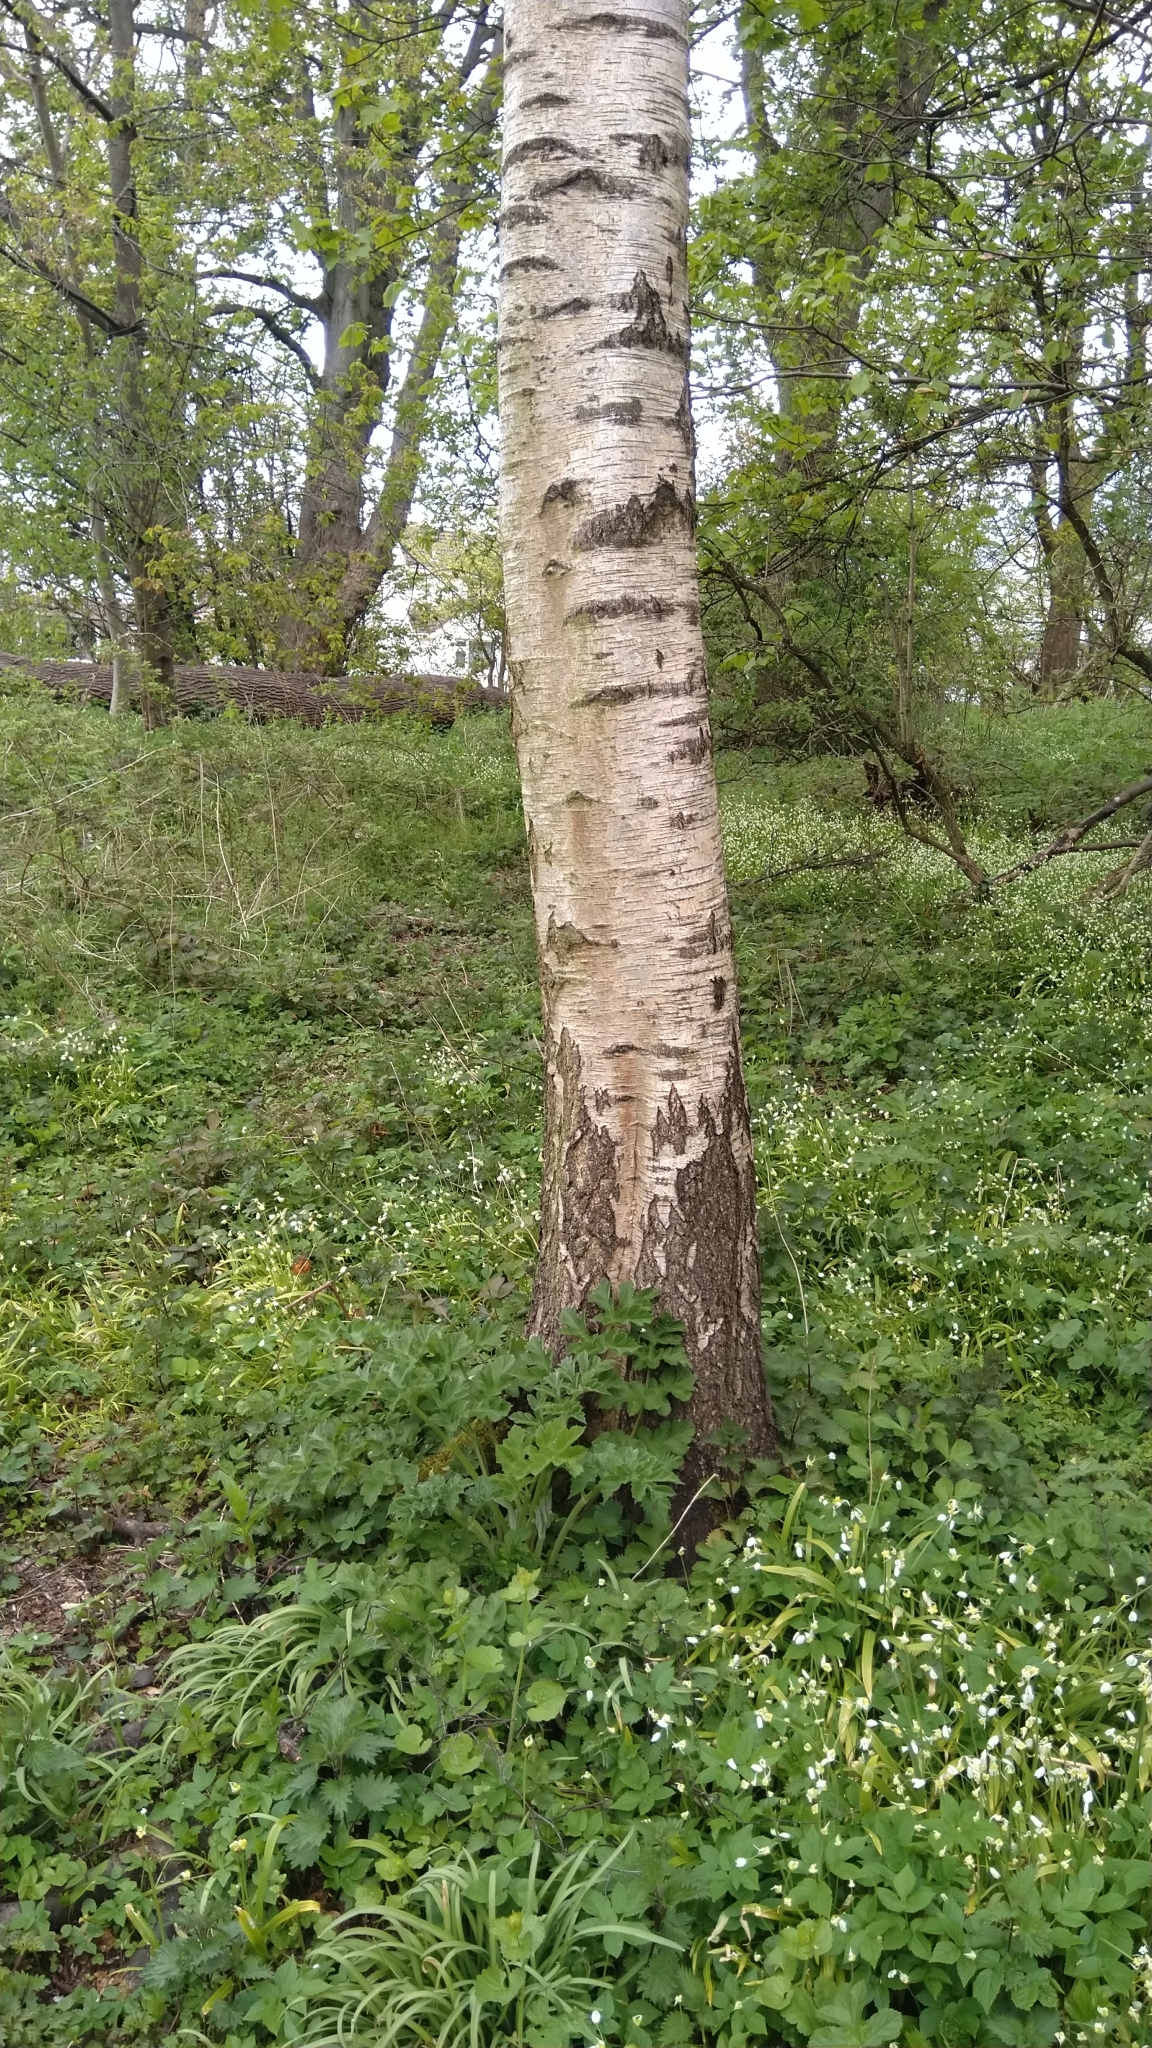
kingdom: Plantae
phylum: Tracheophyta
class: Magnoliopsida
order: Fagales
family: Betulaceae
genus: Betula
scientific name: Betula pendula
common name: Silver birch
